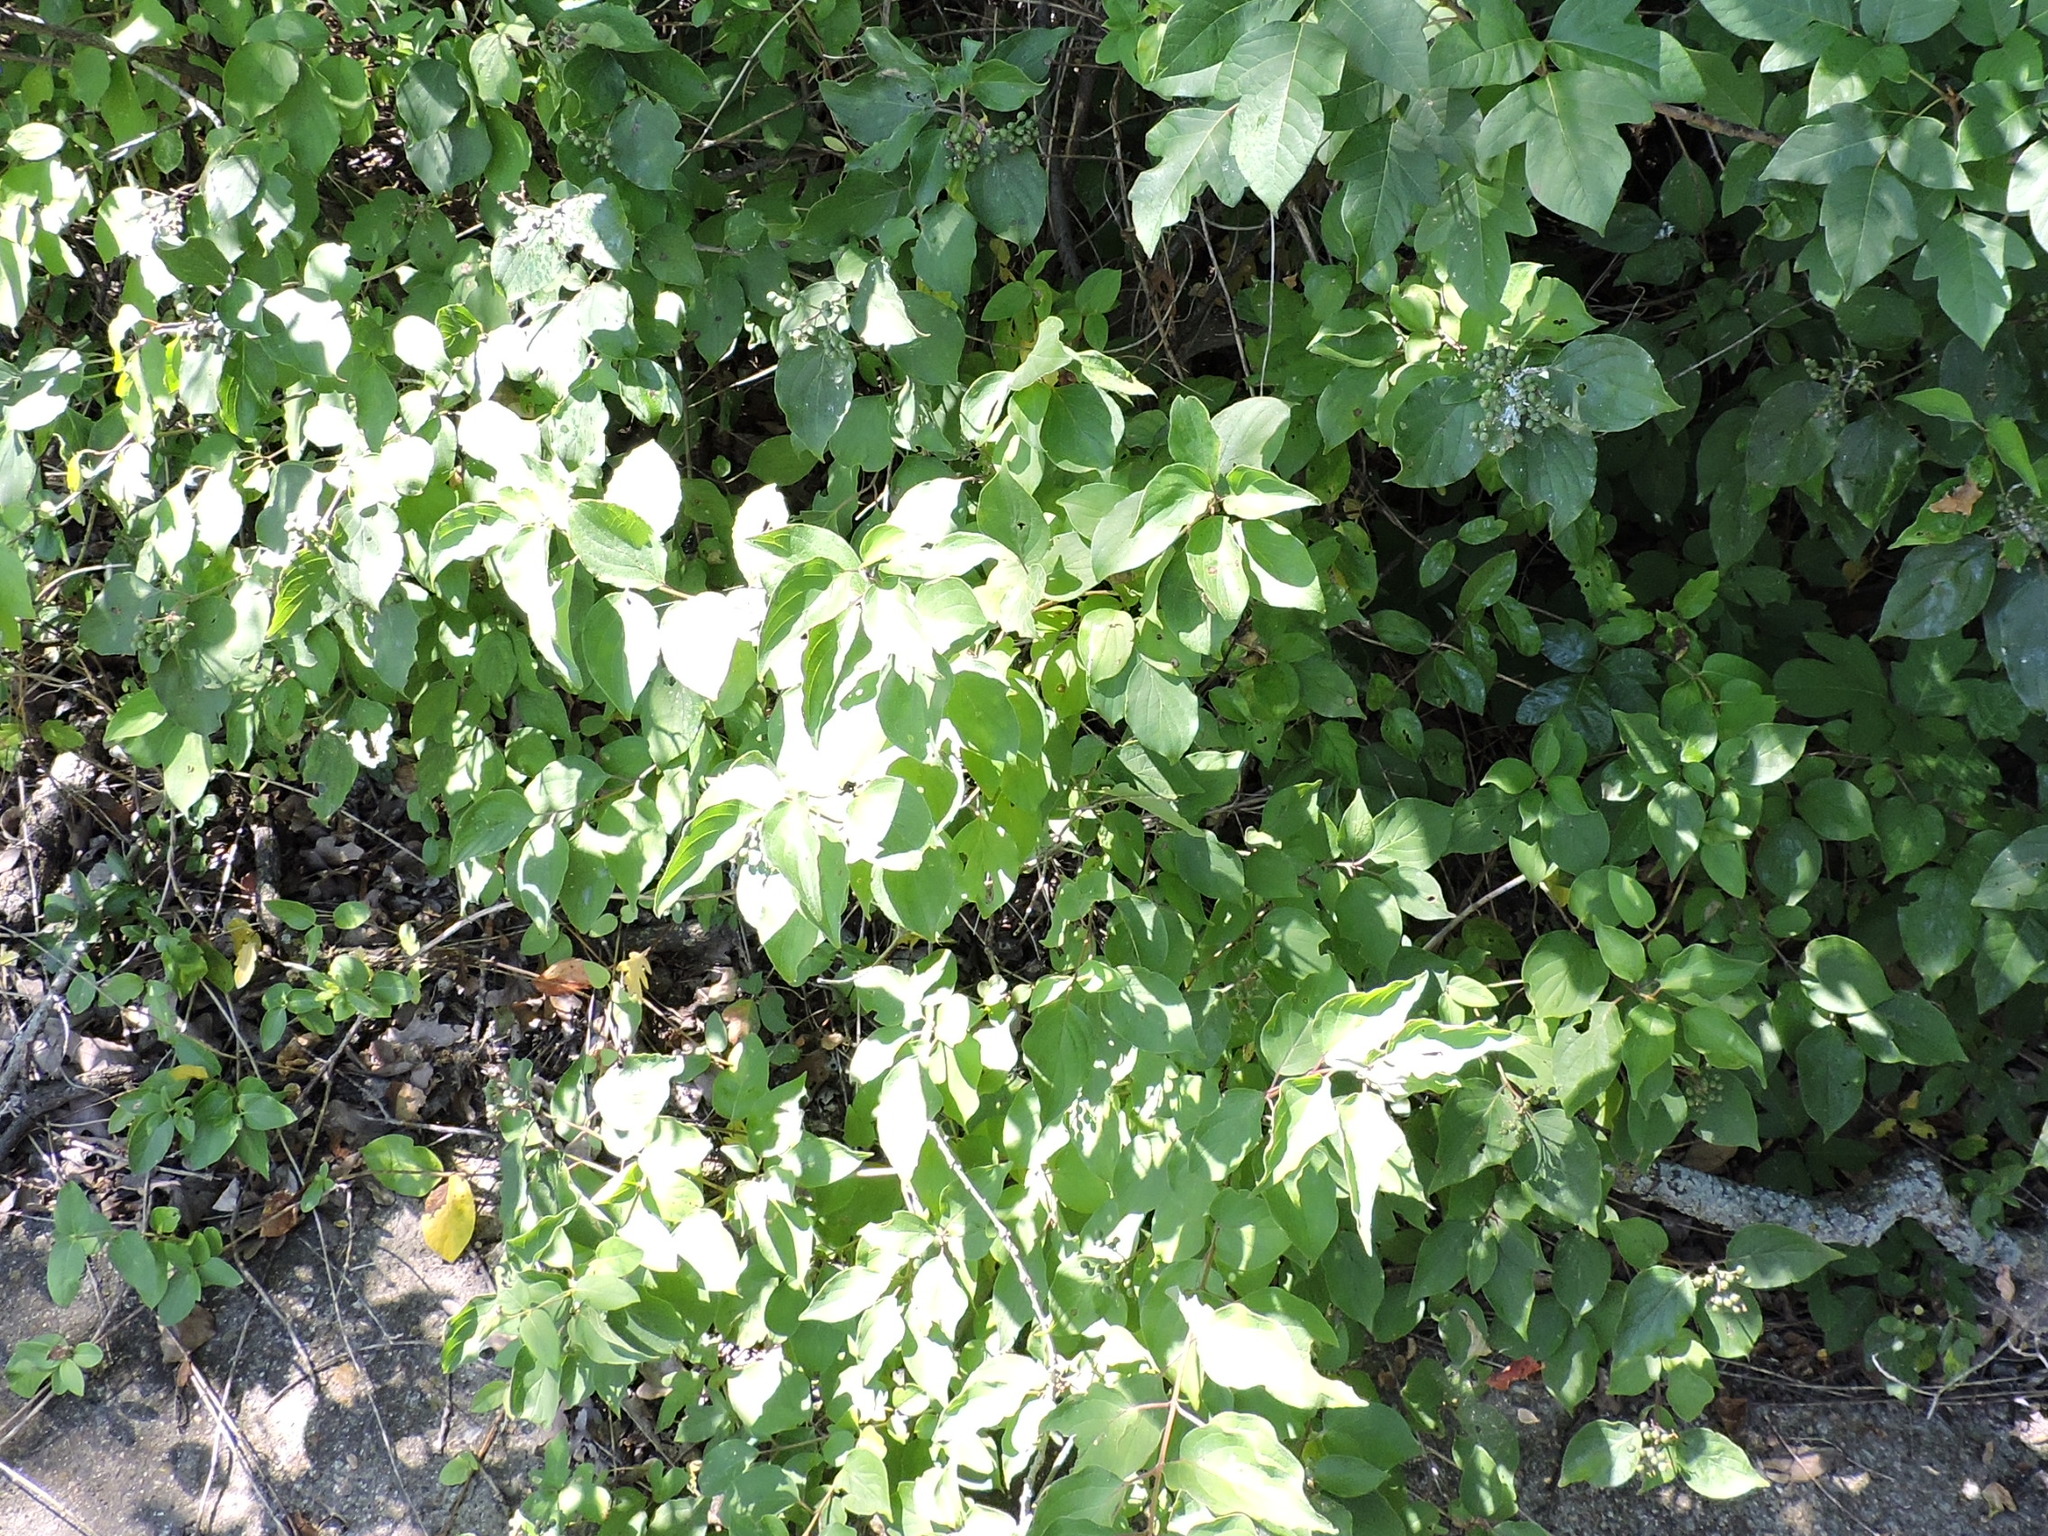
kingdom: Plantae
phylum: Tracheophyta
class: Magnoliopsida
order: Cornales
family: Cornaceae
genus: Cornus
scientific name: Cornus drummondii
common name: Rough-leaf dogwood
